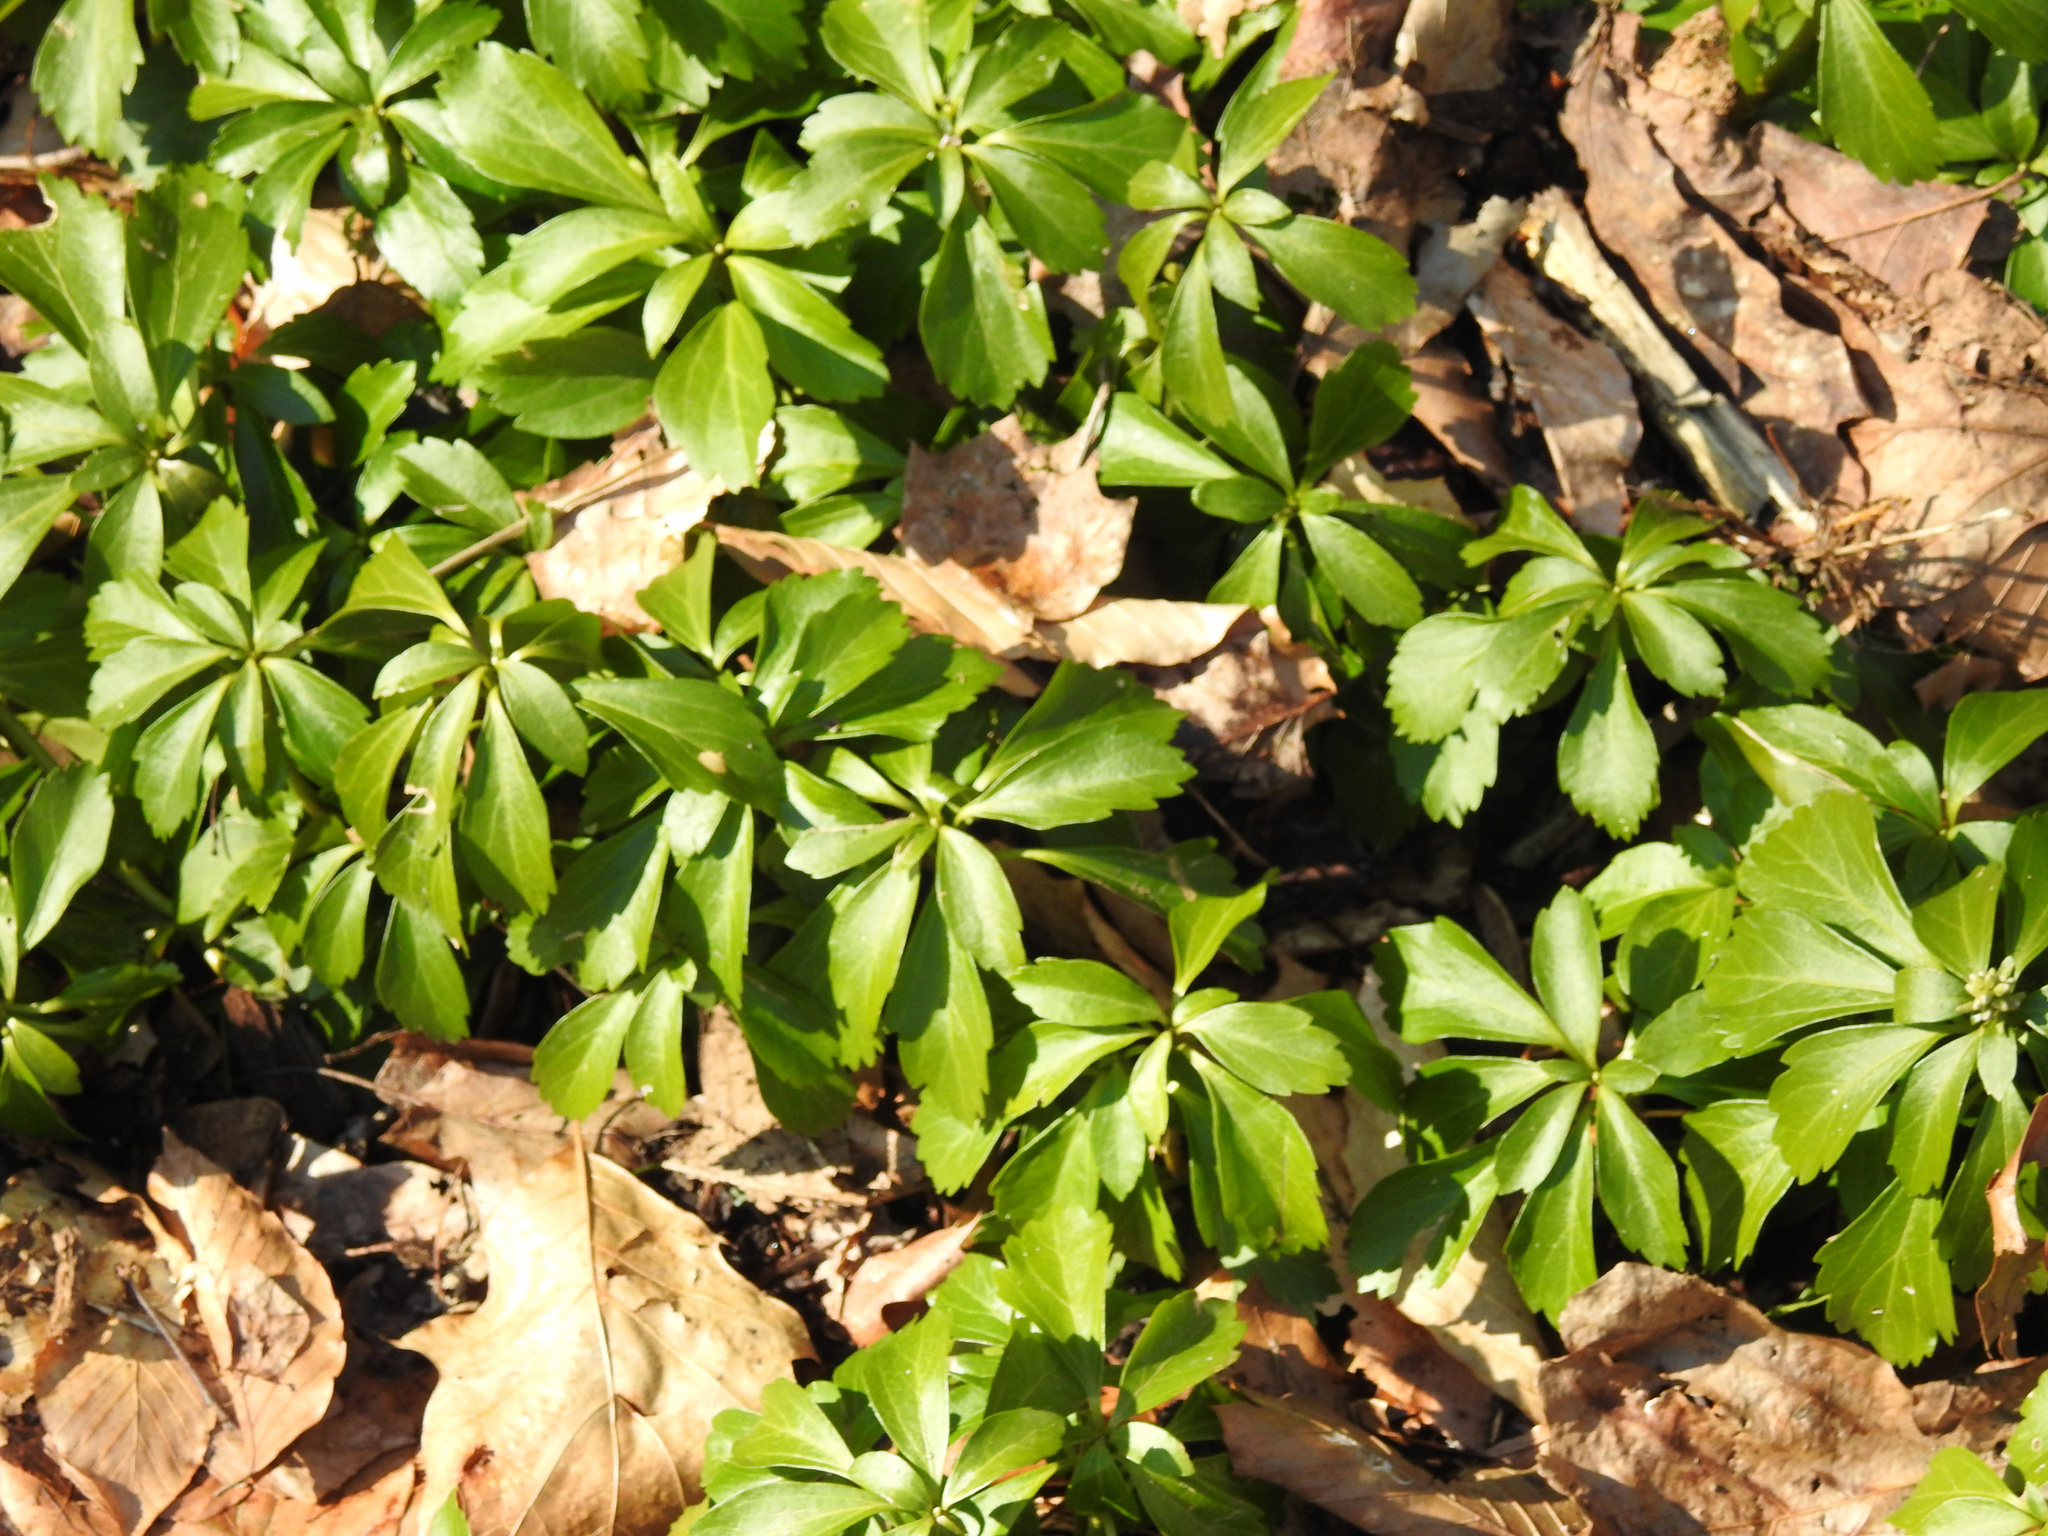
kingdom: Plantae
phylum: Tracheophyta
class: Magnoliopsida
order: Buxales
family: Buxaceae
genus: Pachysandra
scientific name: Pachysandra terminalis
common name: Japanese pachysandra
